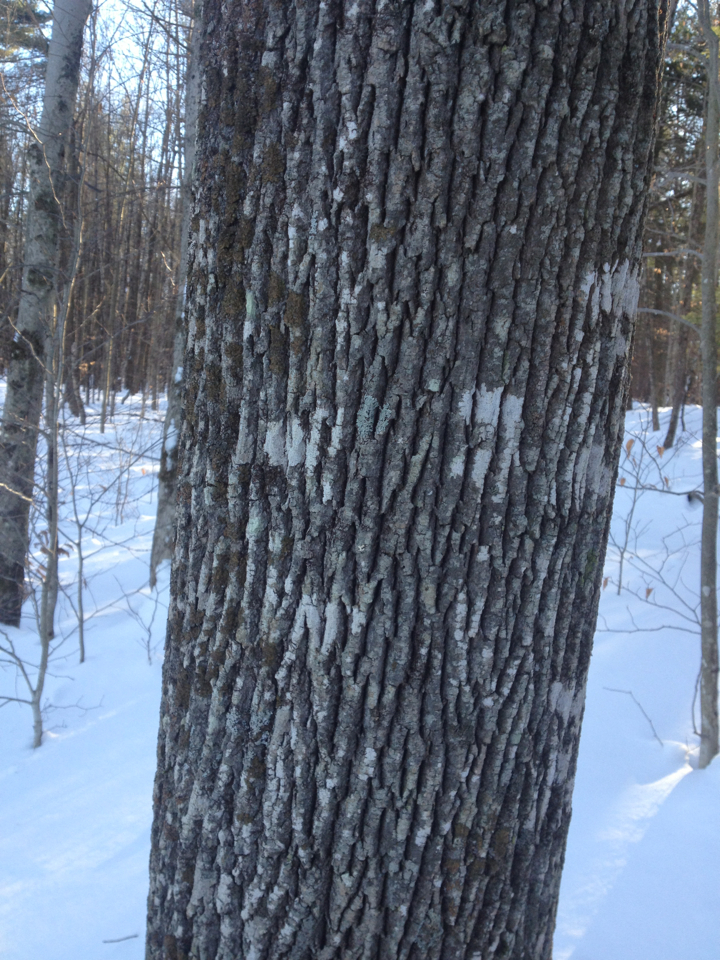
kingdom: Plantae
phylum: Tracheophyta
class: Magnoliopsida
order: Lamiales
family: Oleaceae
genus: Fraxinus
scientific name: Fraxinus americana
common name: White ash
